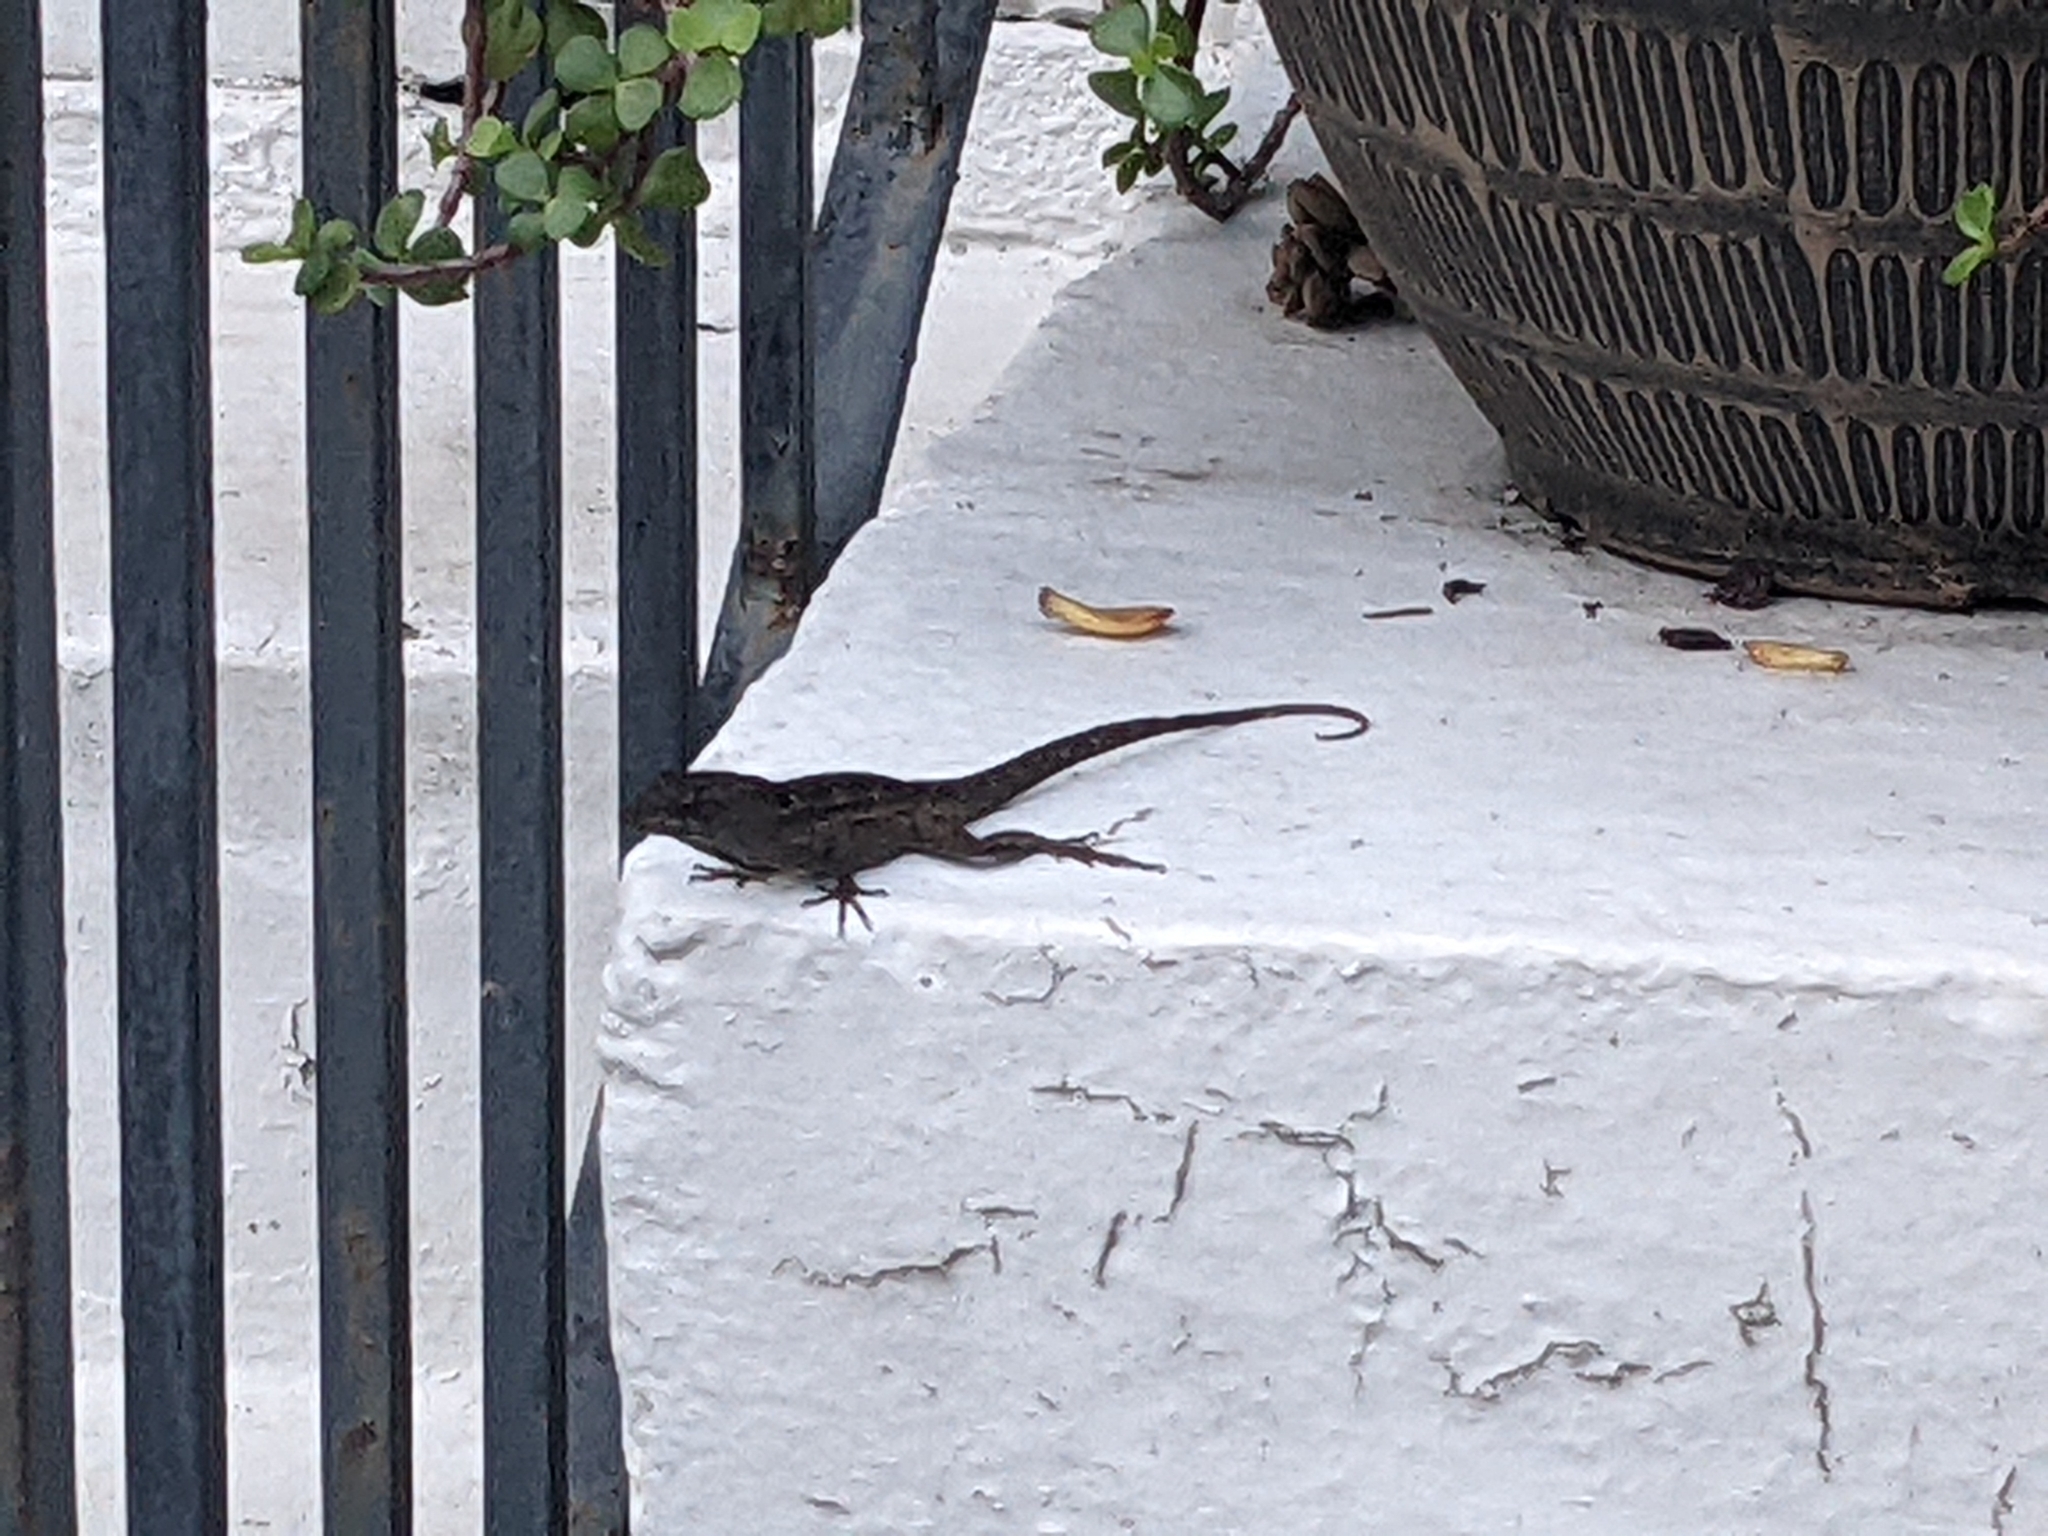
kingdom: Animalia
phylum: Chordata
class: Squamata
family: Dactyloidae
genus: Anolis
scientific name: Anolis sagrei
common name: Brown anole
